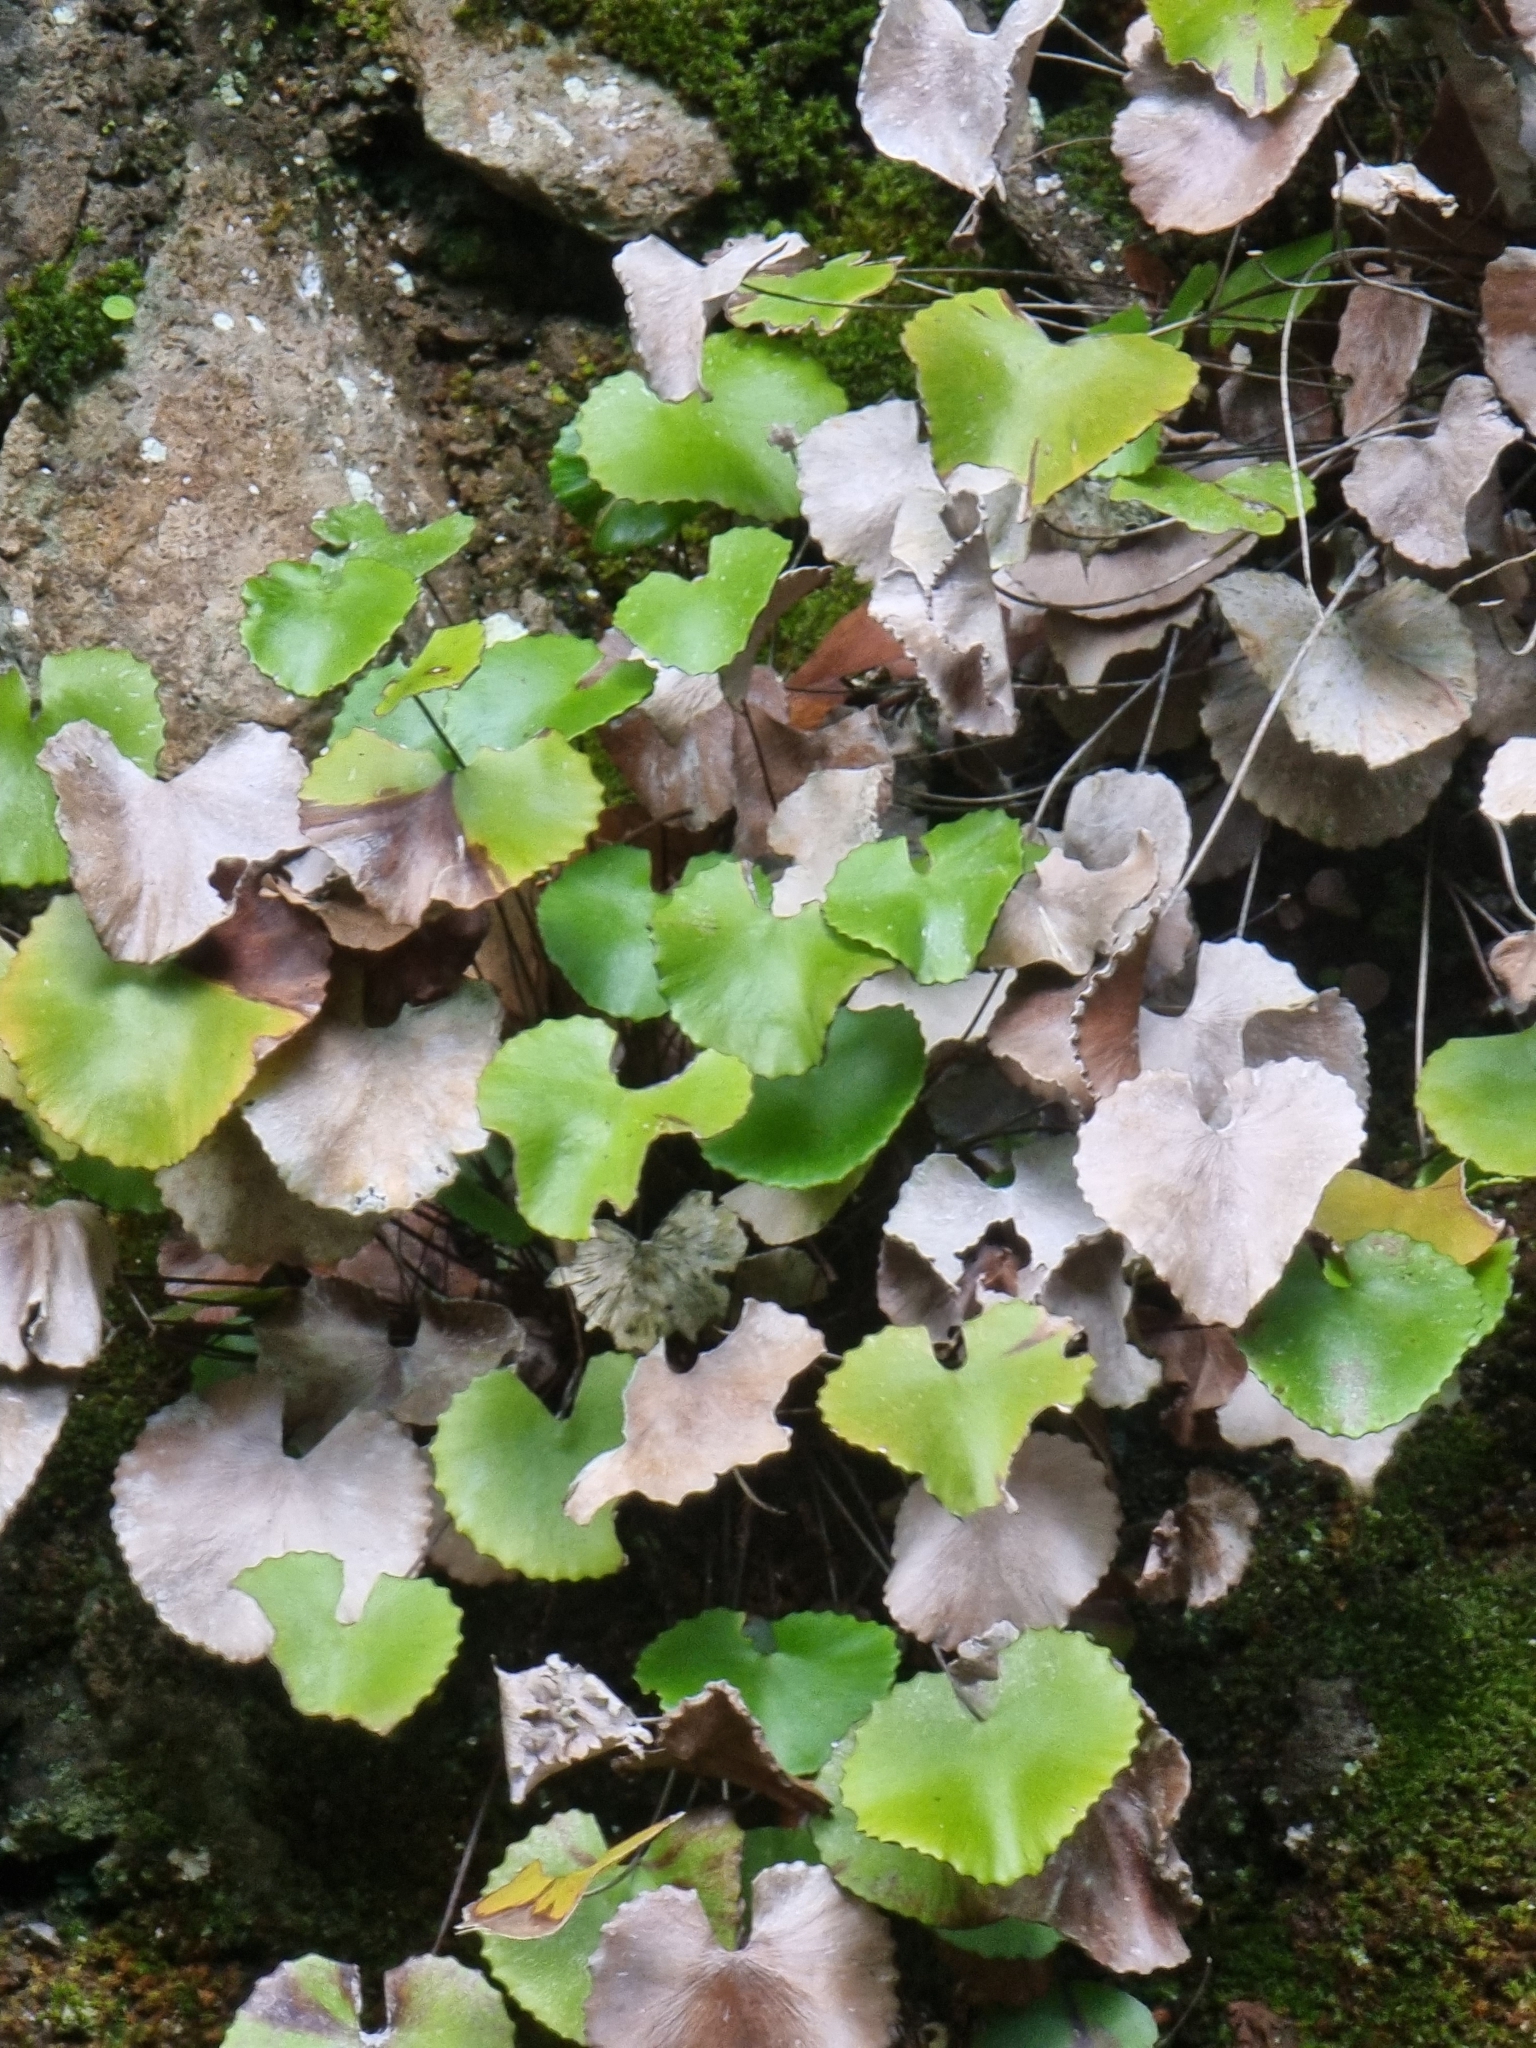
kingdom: Plantae
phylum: Tracheophyta
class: Polypodiopsida
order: Polypodiales
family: Pteridaceae
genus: Adiantum
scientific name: Adiantum reniforme
